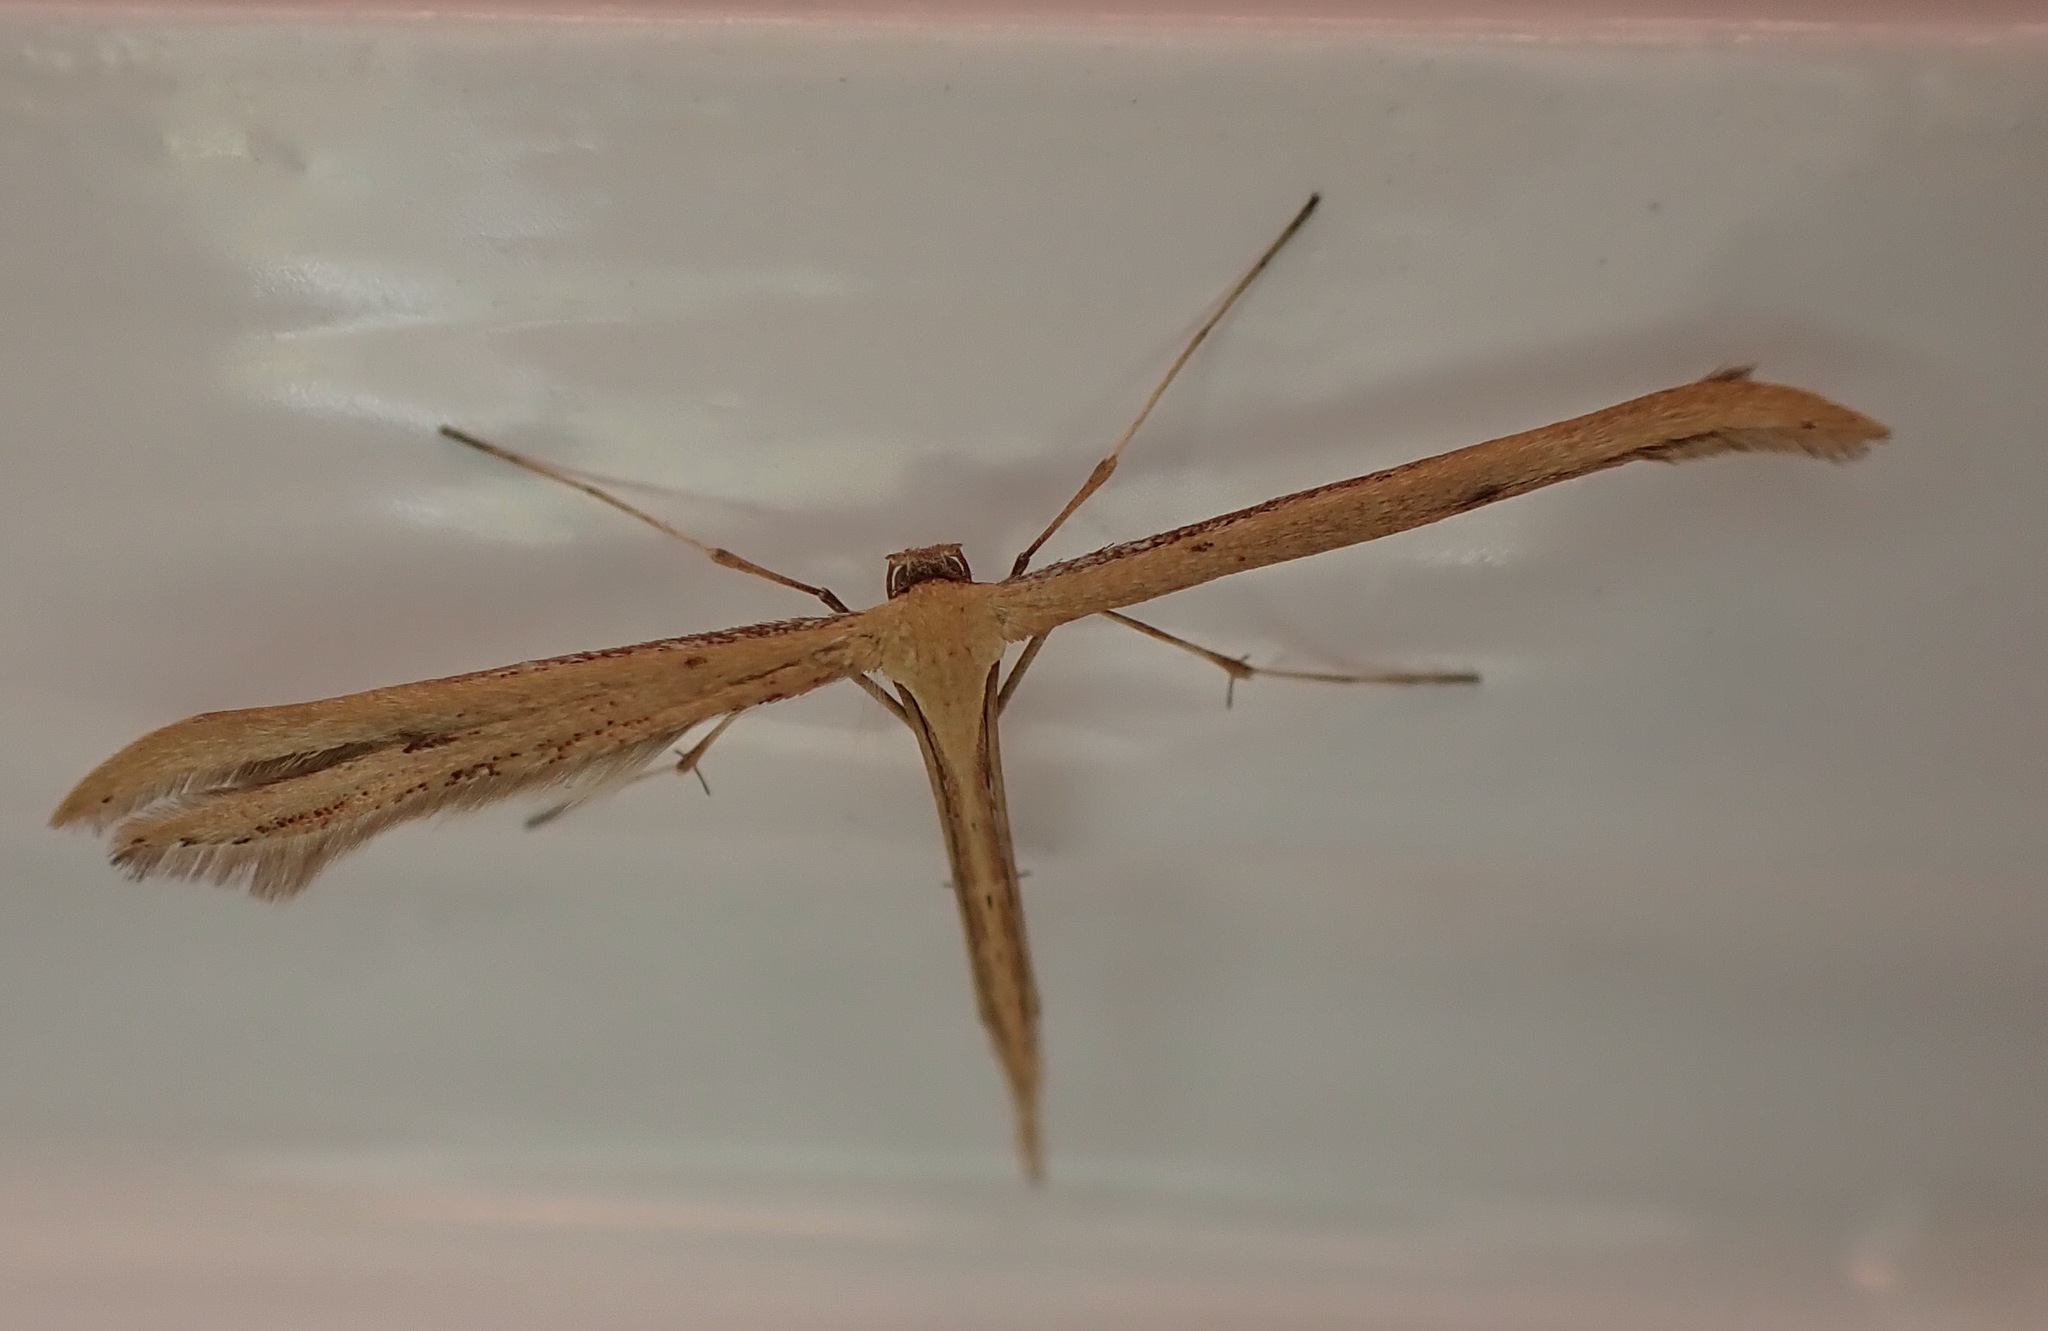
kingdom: Animalia
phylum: Arthropoda
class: Insecta
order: Lepidoptera
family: Pterophoridae
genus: Emmelina
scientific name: Emmelina monodactyla
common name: Common plume
